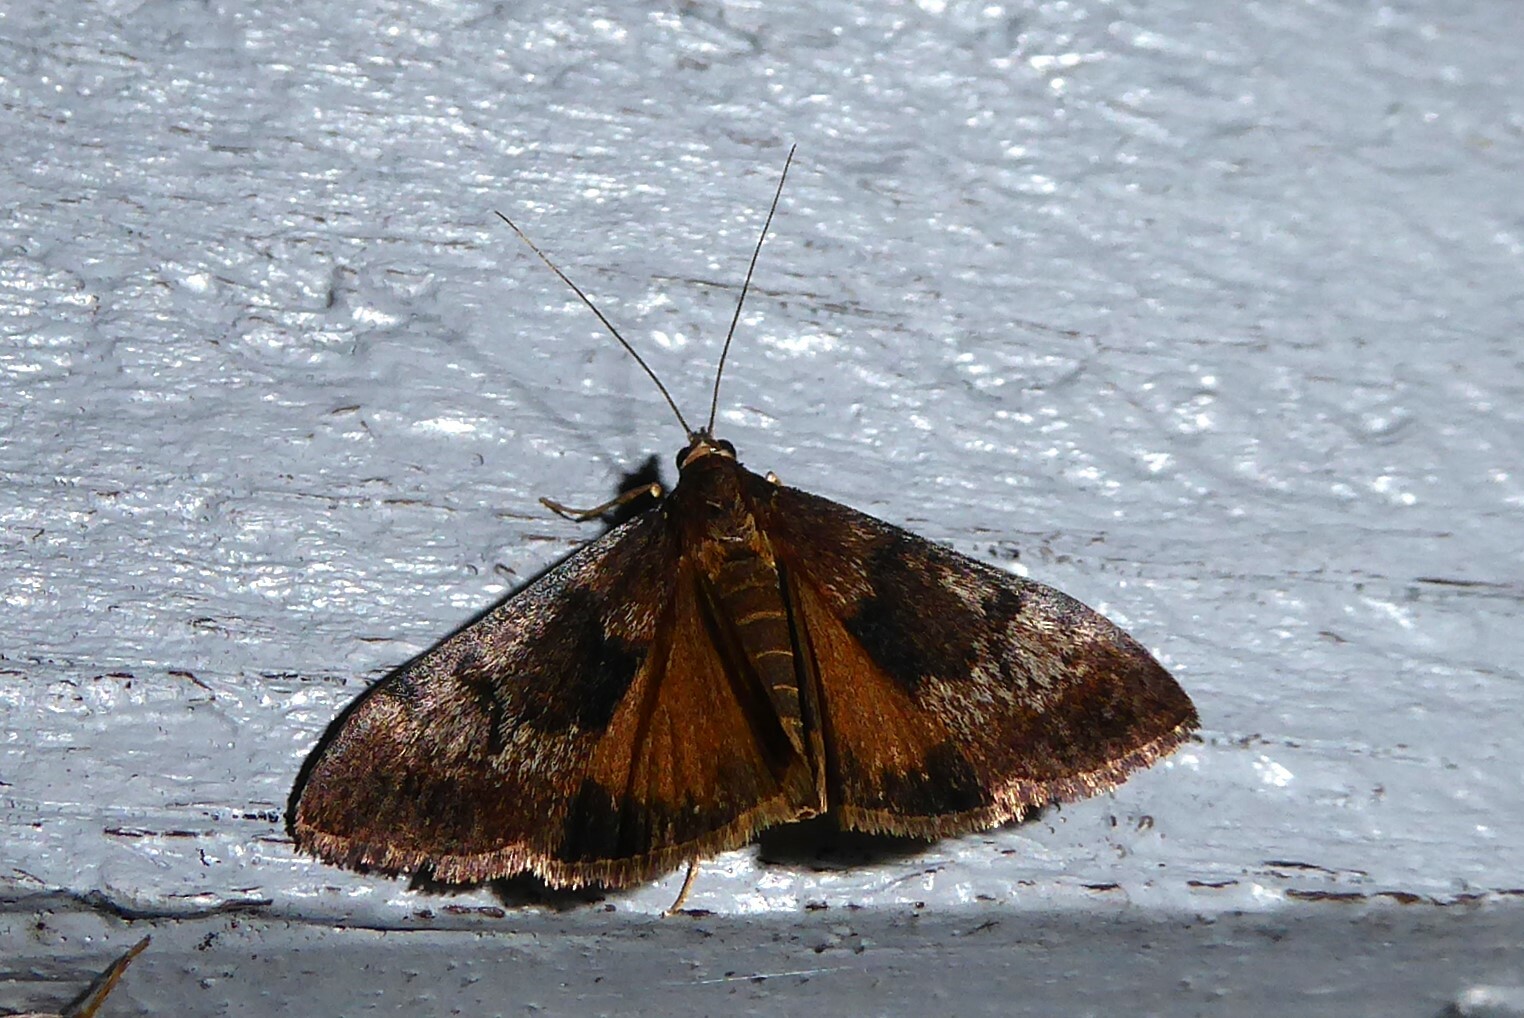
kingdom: Animalia
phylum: Arthropoda
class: Insecta
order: Lepidoptera
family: Crambidae
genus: Uresiphita
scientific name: Uresiphita
